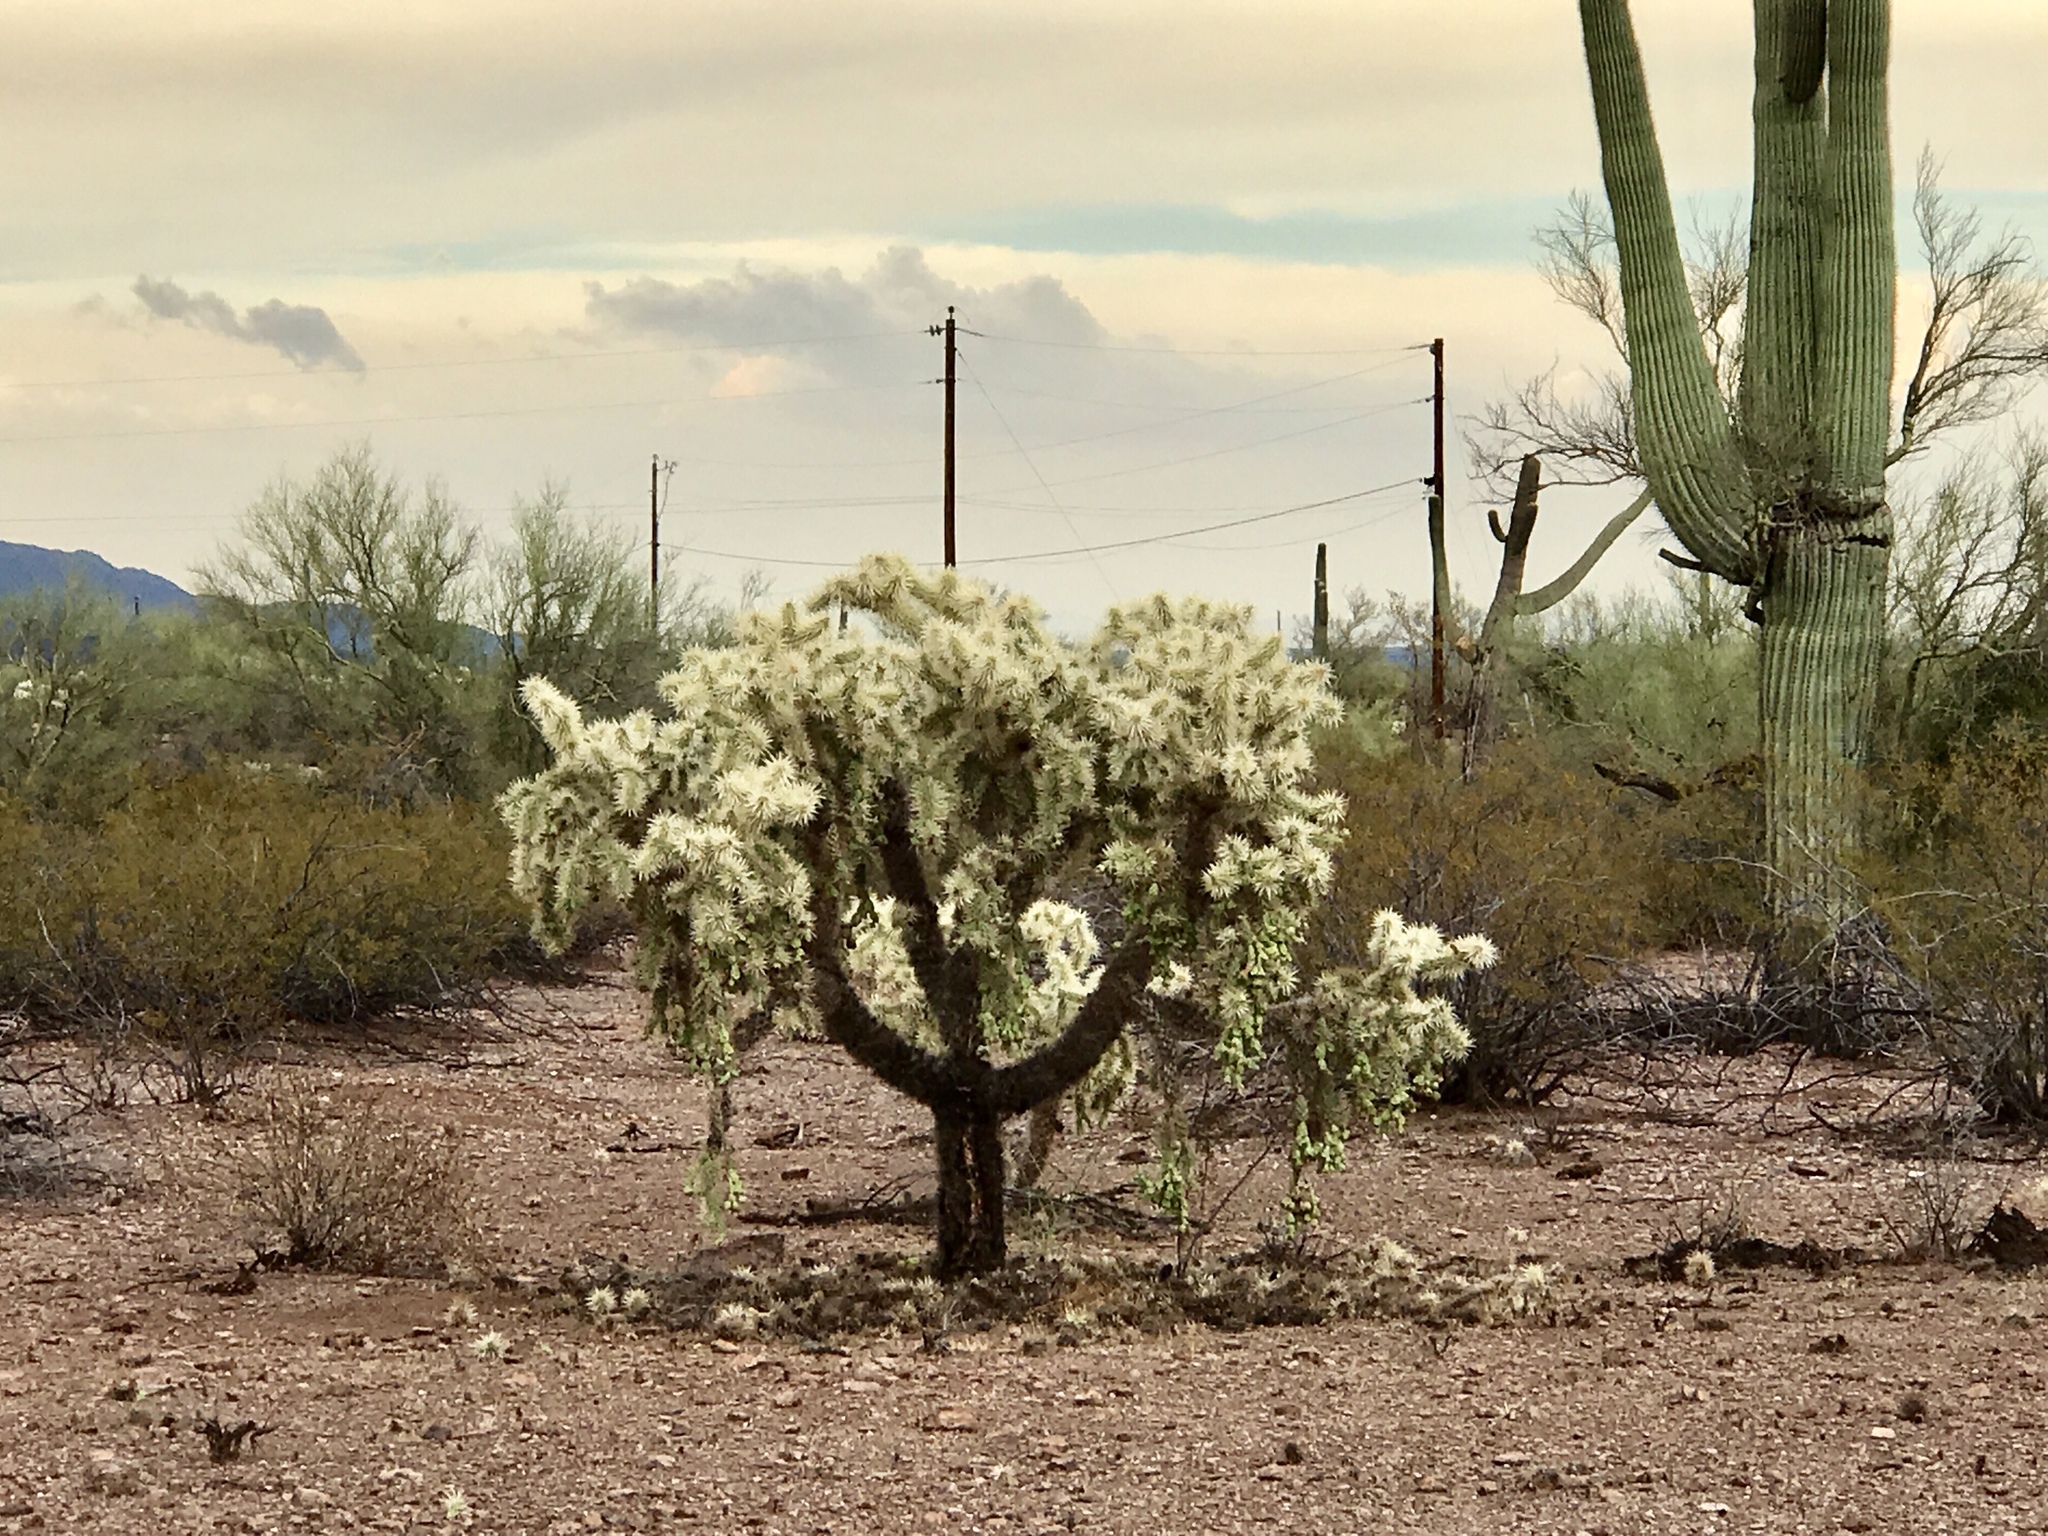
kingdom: Plantae
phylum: Tracheophyta
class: Magnoliopsida
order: Caryophyllales
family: Cactaceae
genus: Cylindropuntia
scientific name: Cylindropuntia fulgida
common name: Jumping cholla
